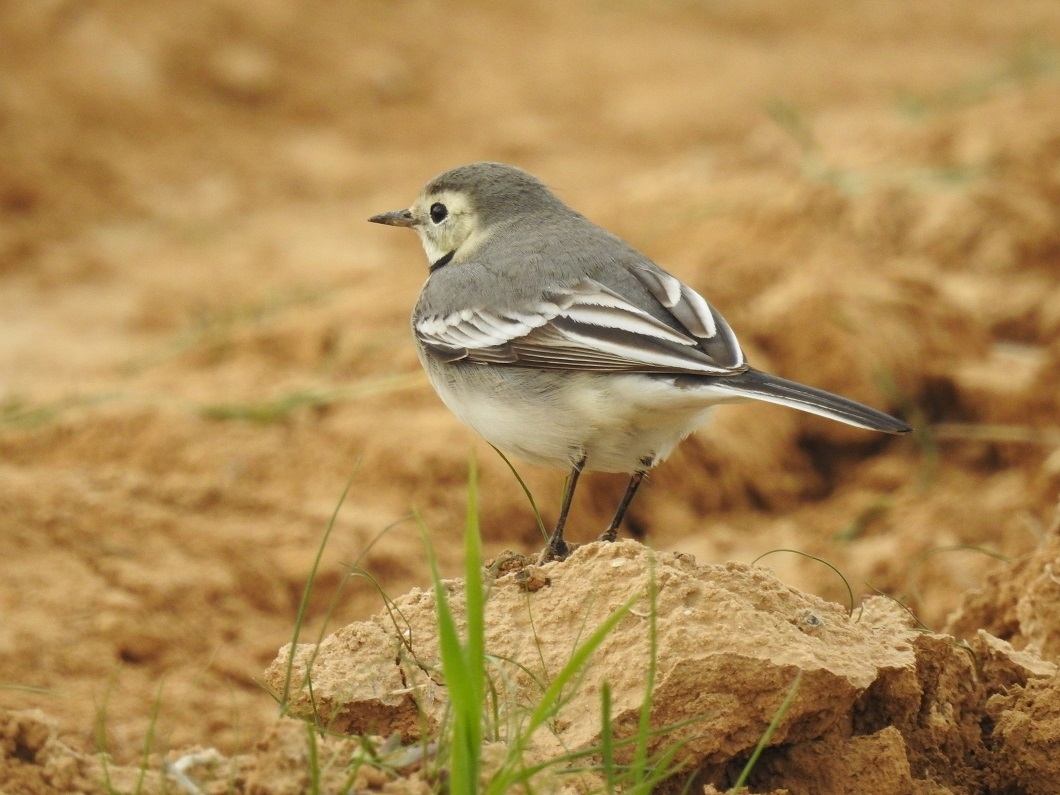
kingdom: Animalia
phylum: Chordata
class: Aves
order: Passeriformes
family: Motacillidae
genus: Motacilla
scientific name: Motacilla alba
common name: White wagtail
